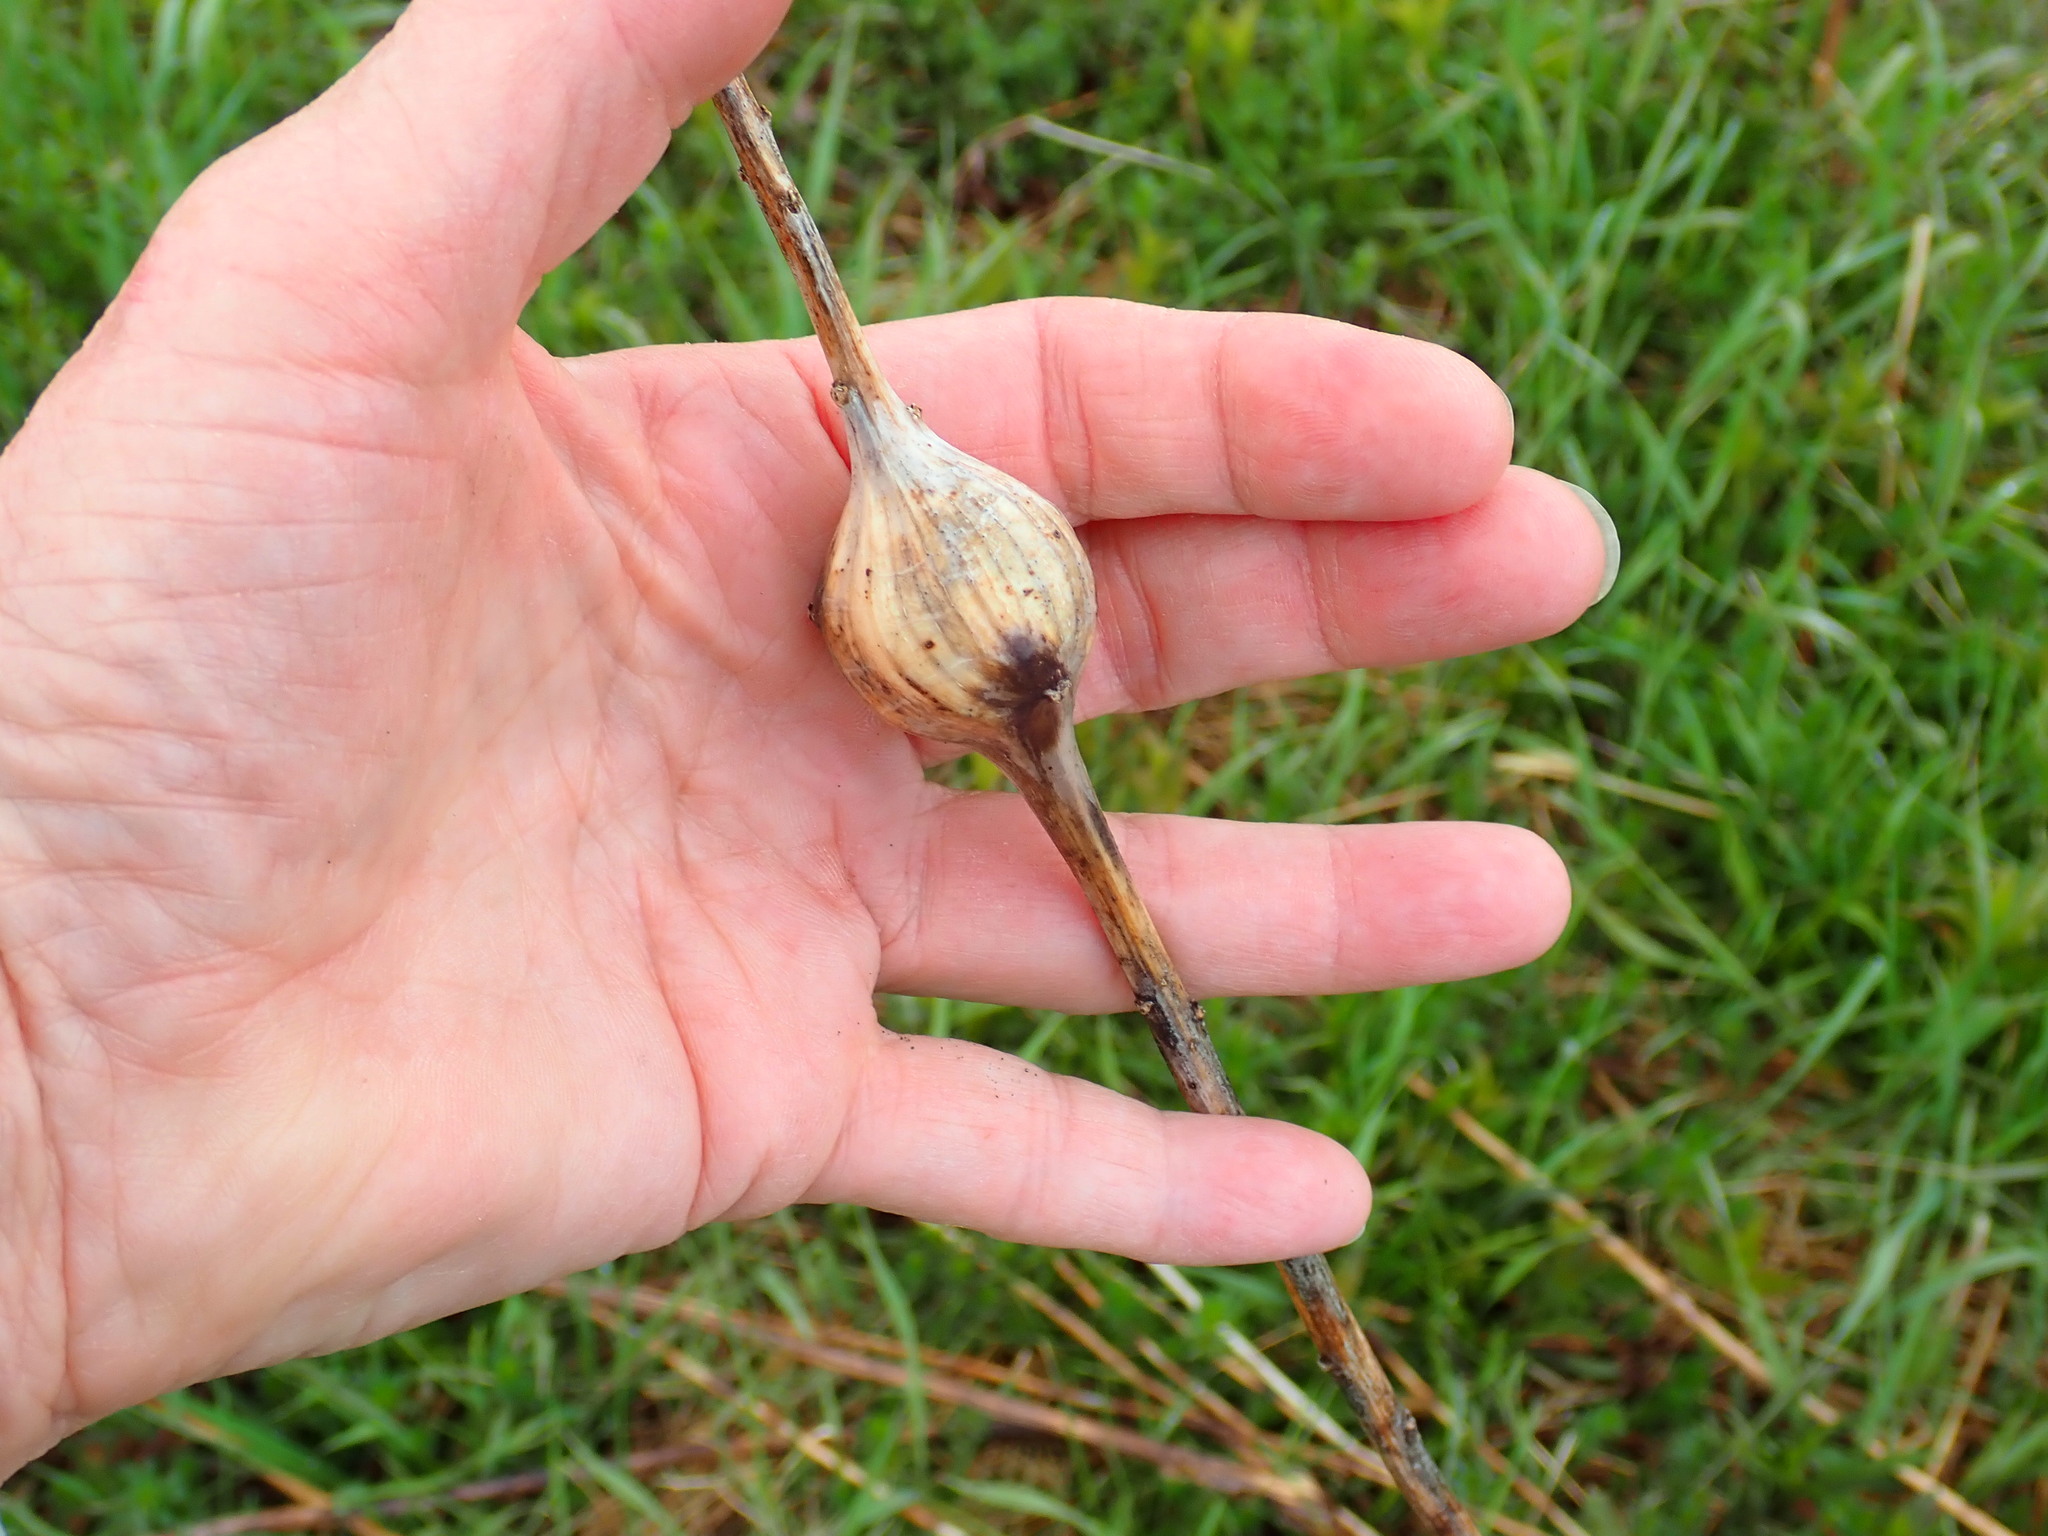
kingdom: Animalia
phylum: Arthropoda
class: Insecta
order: Diptera
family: Tephritidae
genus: Eurosta
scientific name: Eurosta solidaginis
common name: Goldenrod gall fly
